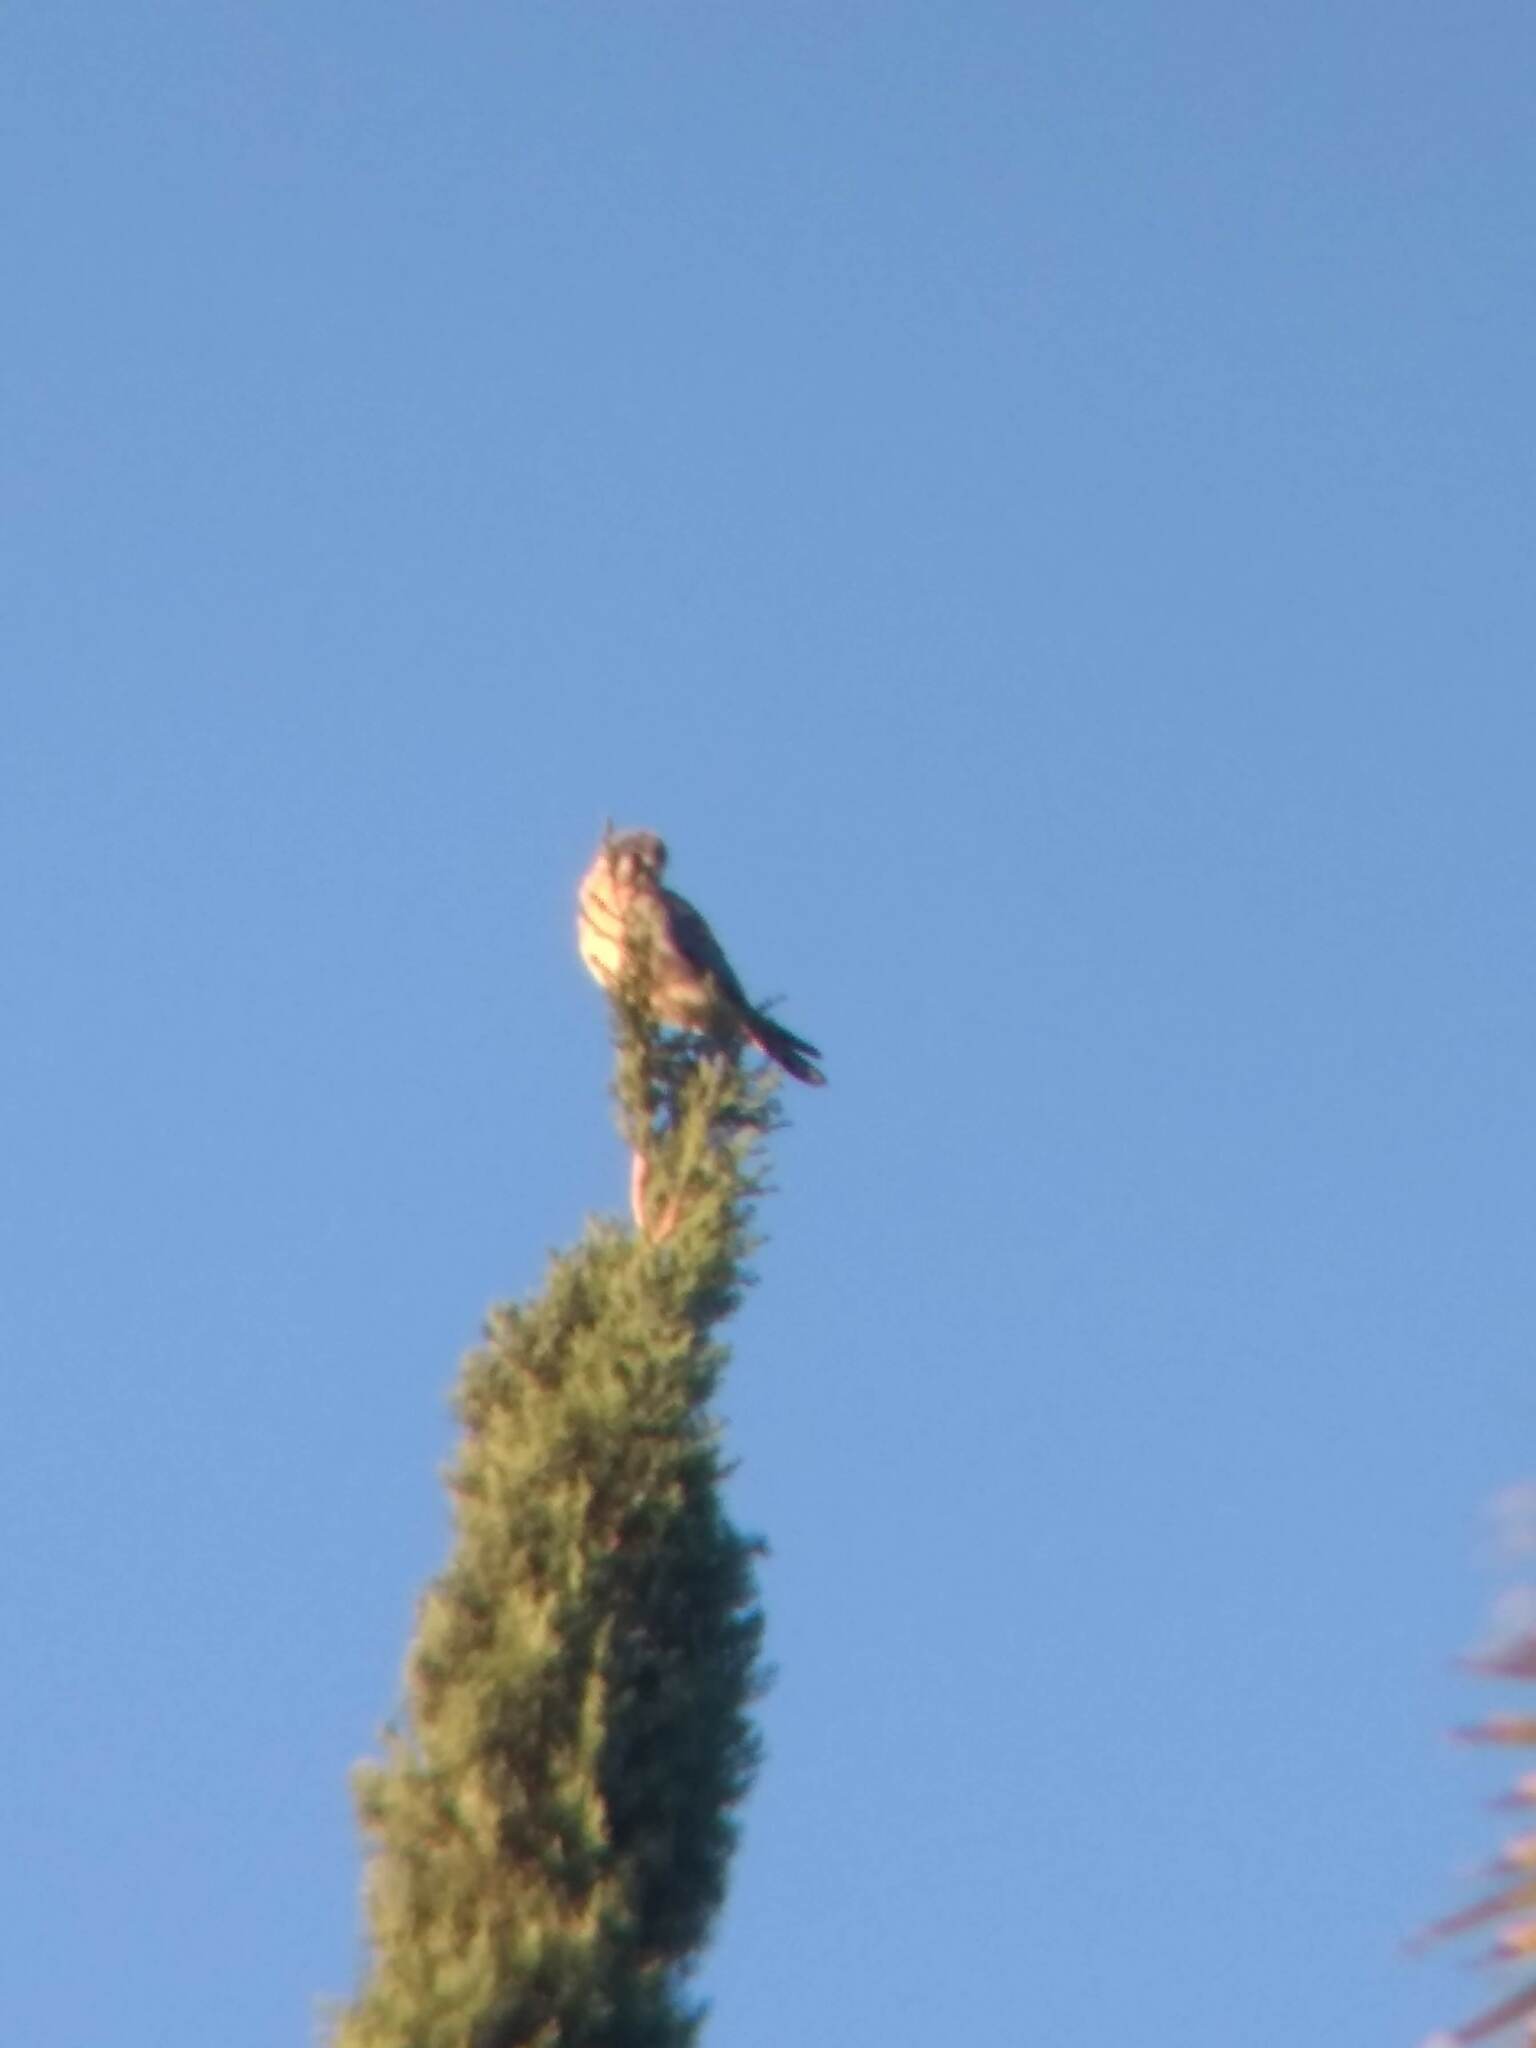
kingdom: Animalia
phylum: Chordata
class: Aves
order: Falconiformes
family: Falconidae
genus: Falco
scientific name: Falco sparverius
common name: American kestrel
